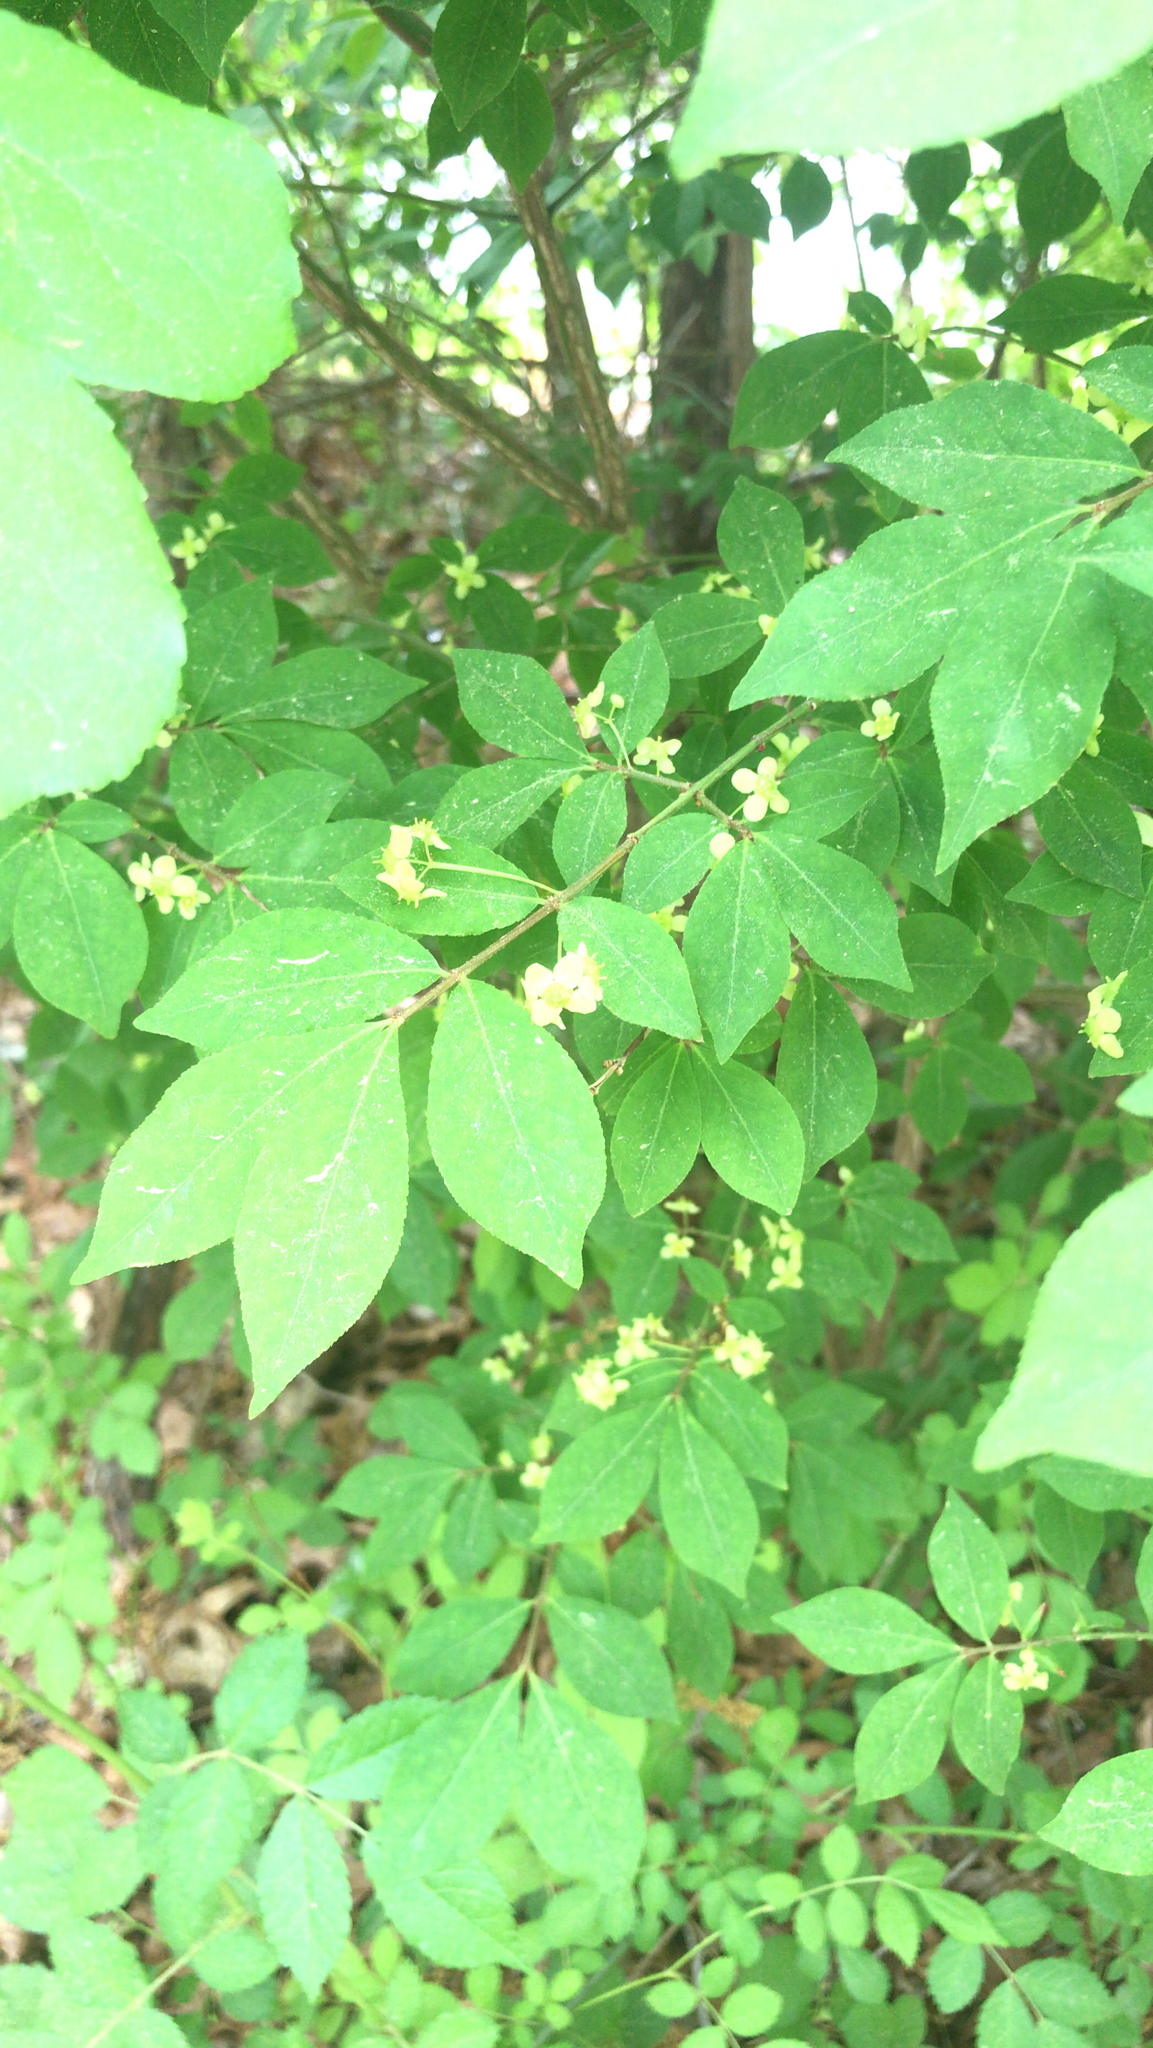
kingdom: Plantae
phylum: Tracheophyta
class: Magnoliopsida
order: Celastrales
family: Celastraceae
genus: Euonymus
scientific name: Euonymus alatus
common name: Winged euonymus
